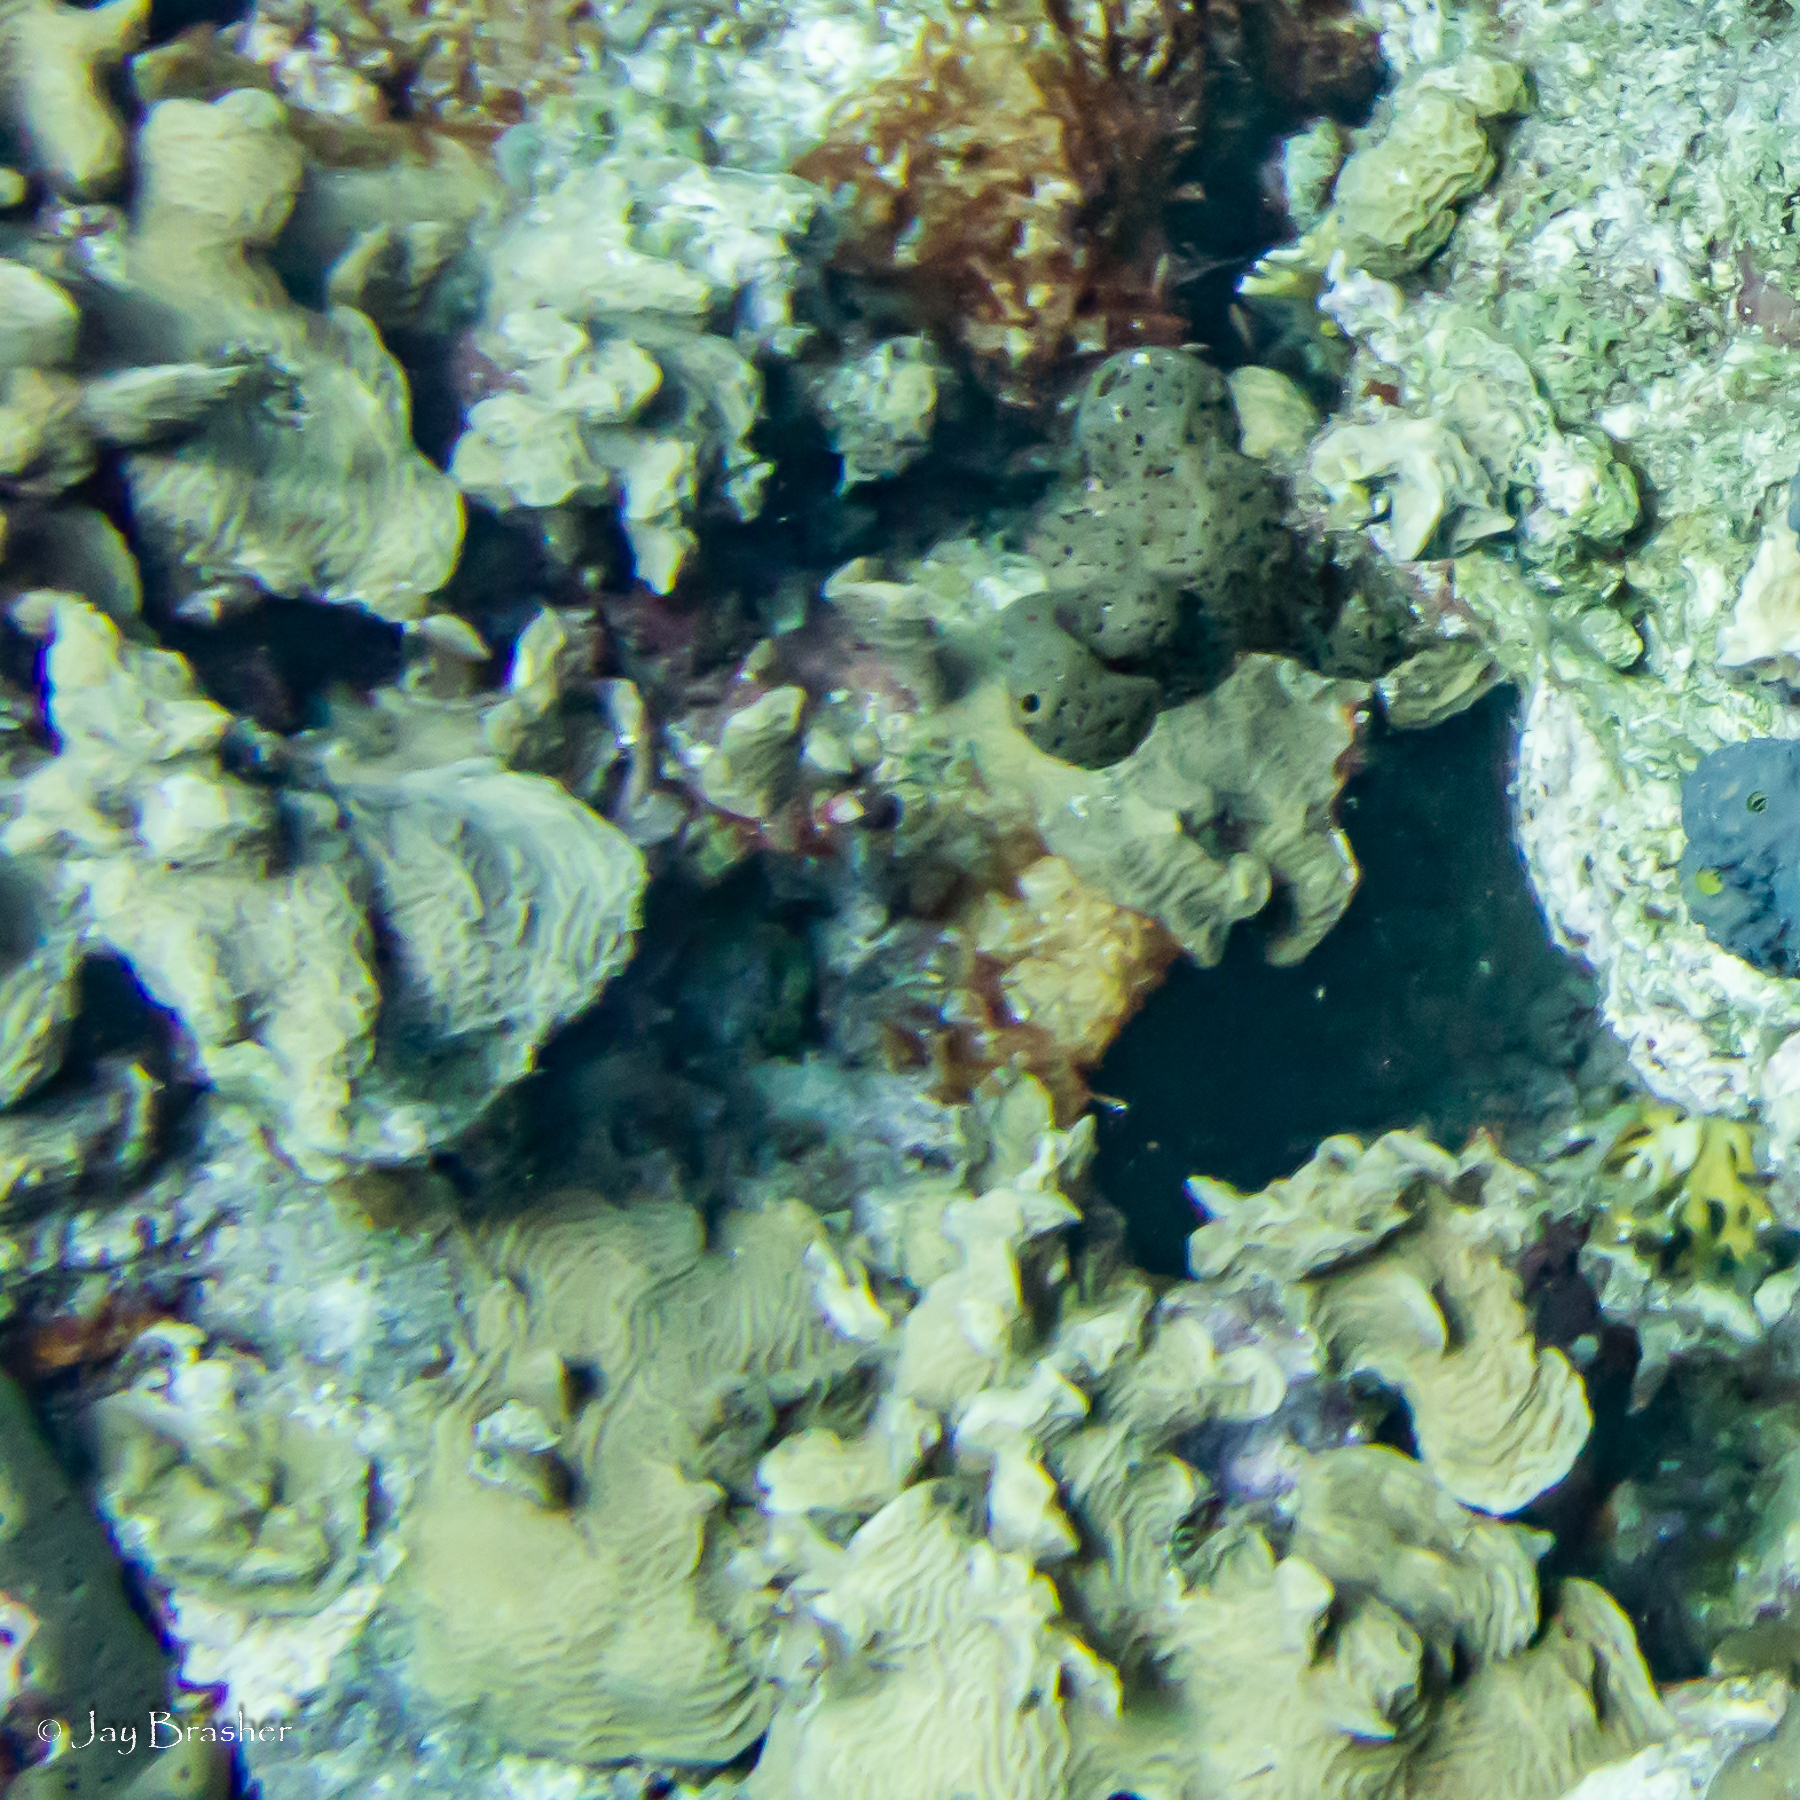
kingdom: Animalia
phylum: Porifera
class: Demospongiae
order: Agelasida
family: Agelasidae
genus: Agelas
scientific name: Agelas conifera
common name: Brown tube sponge
